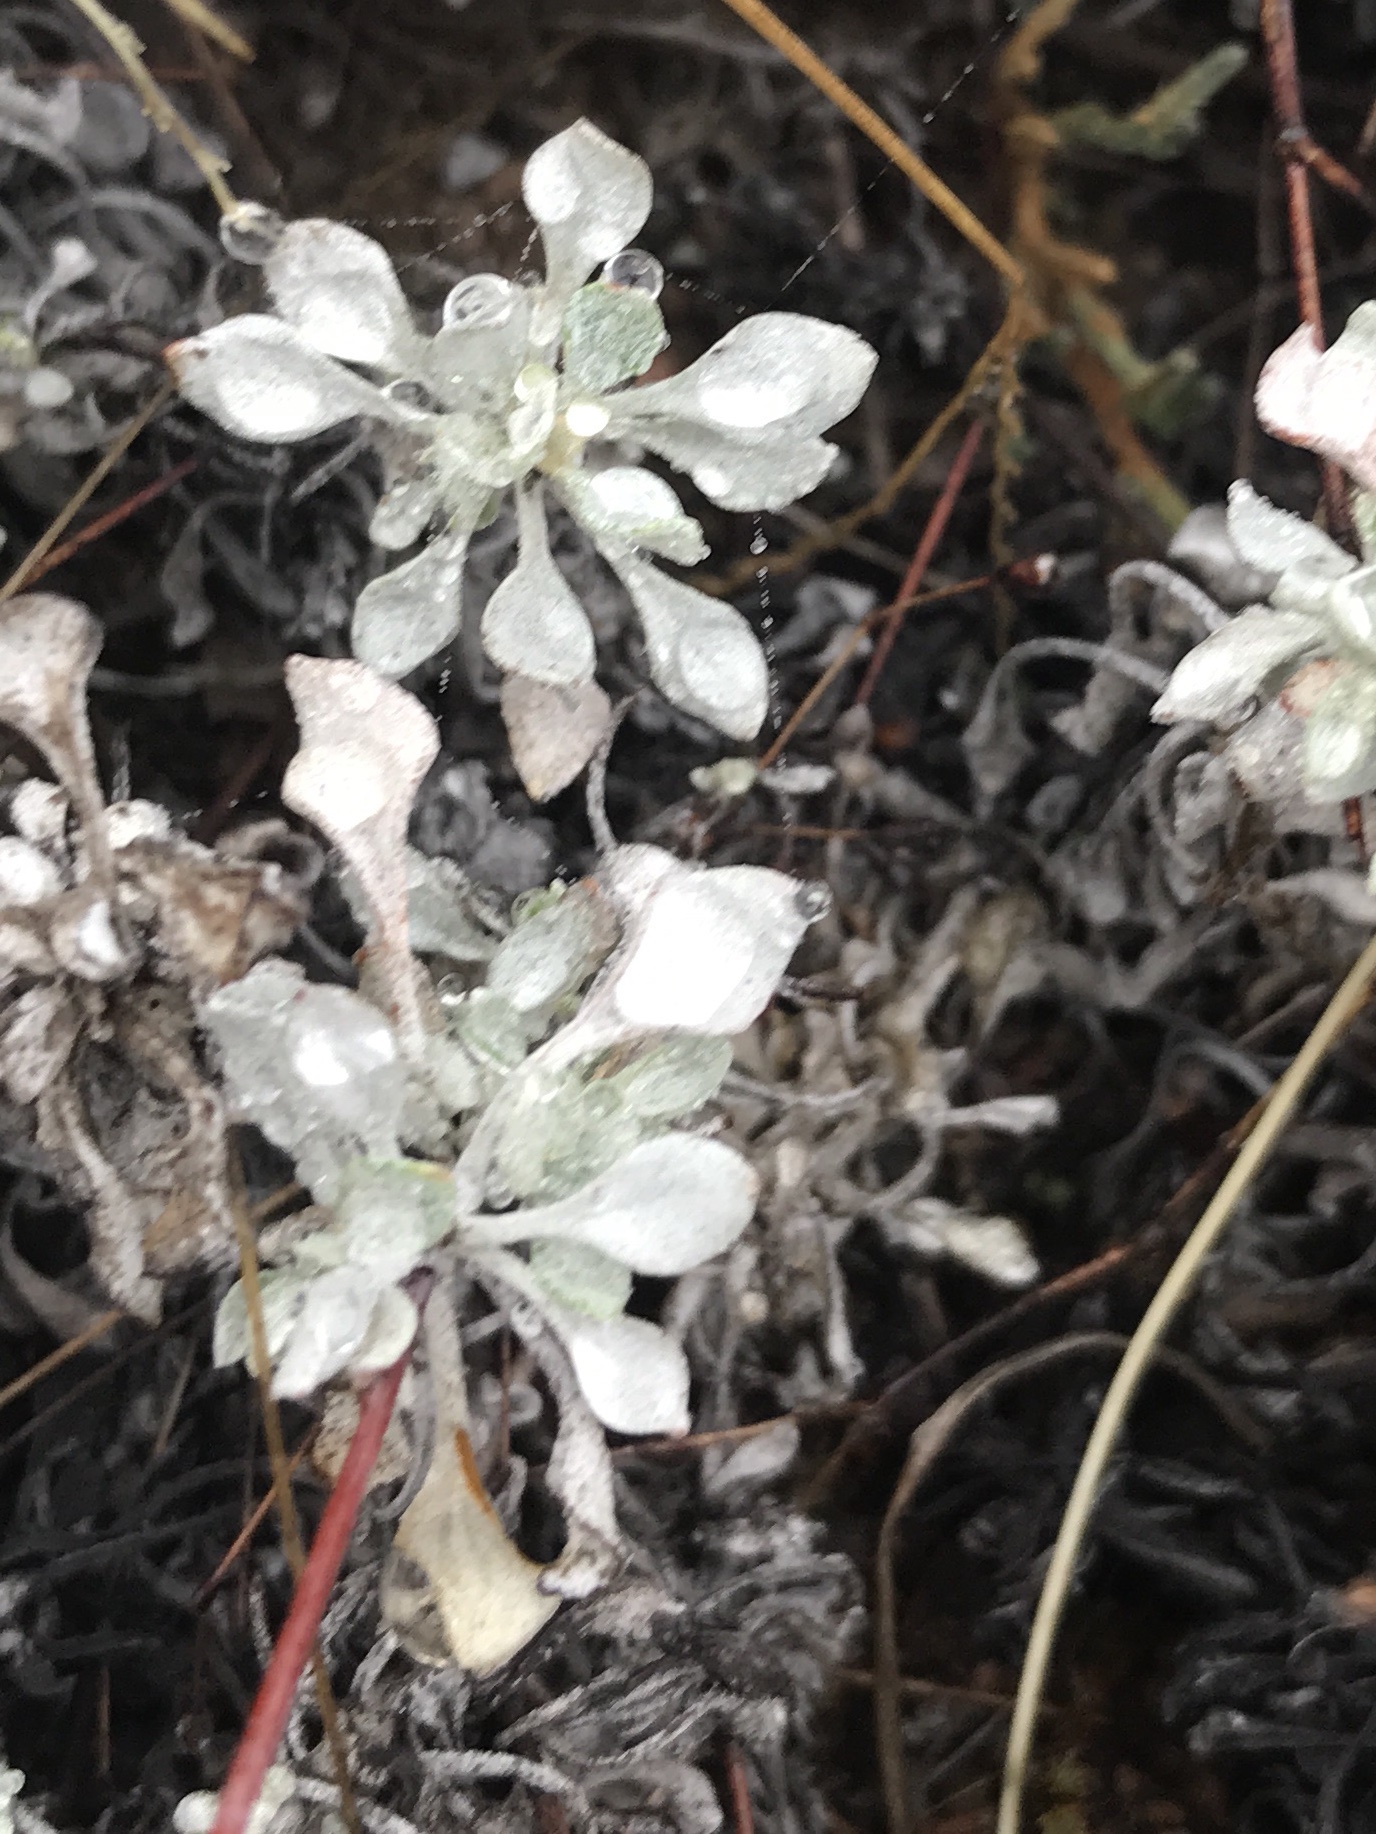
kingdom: Plantae
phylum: Tracheophyta
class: Magnoliopsida
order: Caryophyllales
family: Polygonaceae
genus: Eriogonum
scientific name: Eriogonum graniticum
